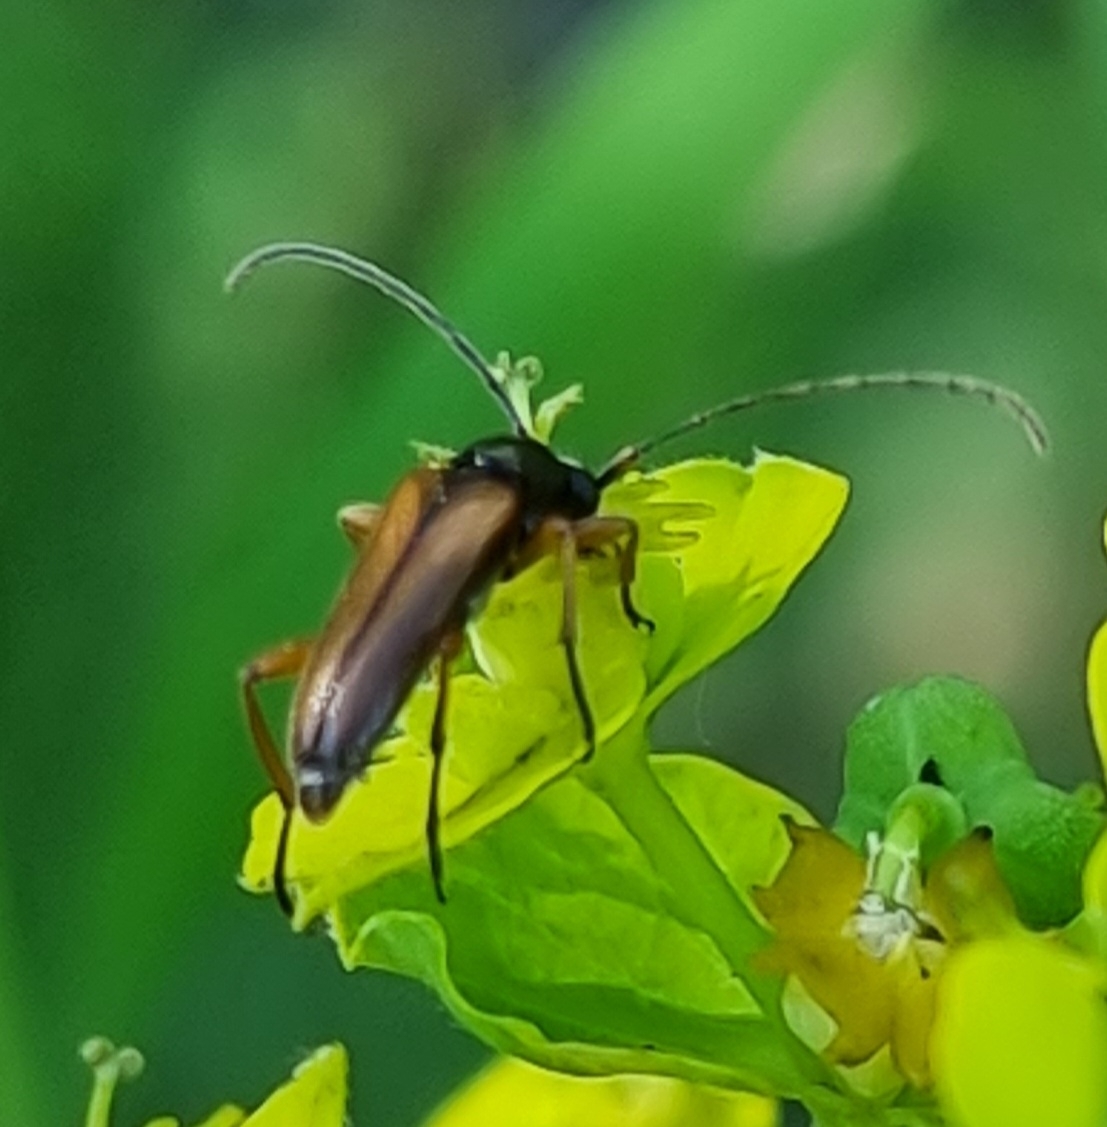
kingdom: Animalia
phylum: Arthropoda
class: Insecta
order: Coleoptera
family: Cerambycidae
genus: Alosterna
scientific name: Alosterna tabacicolor
